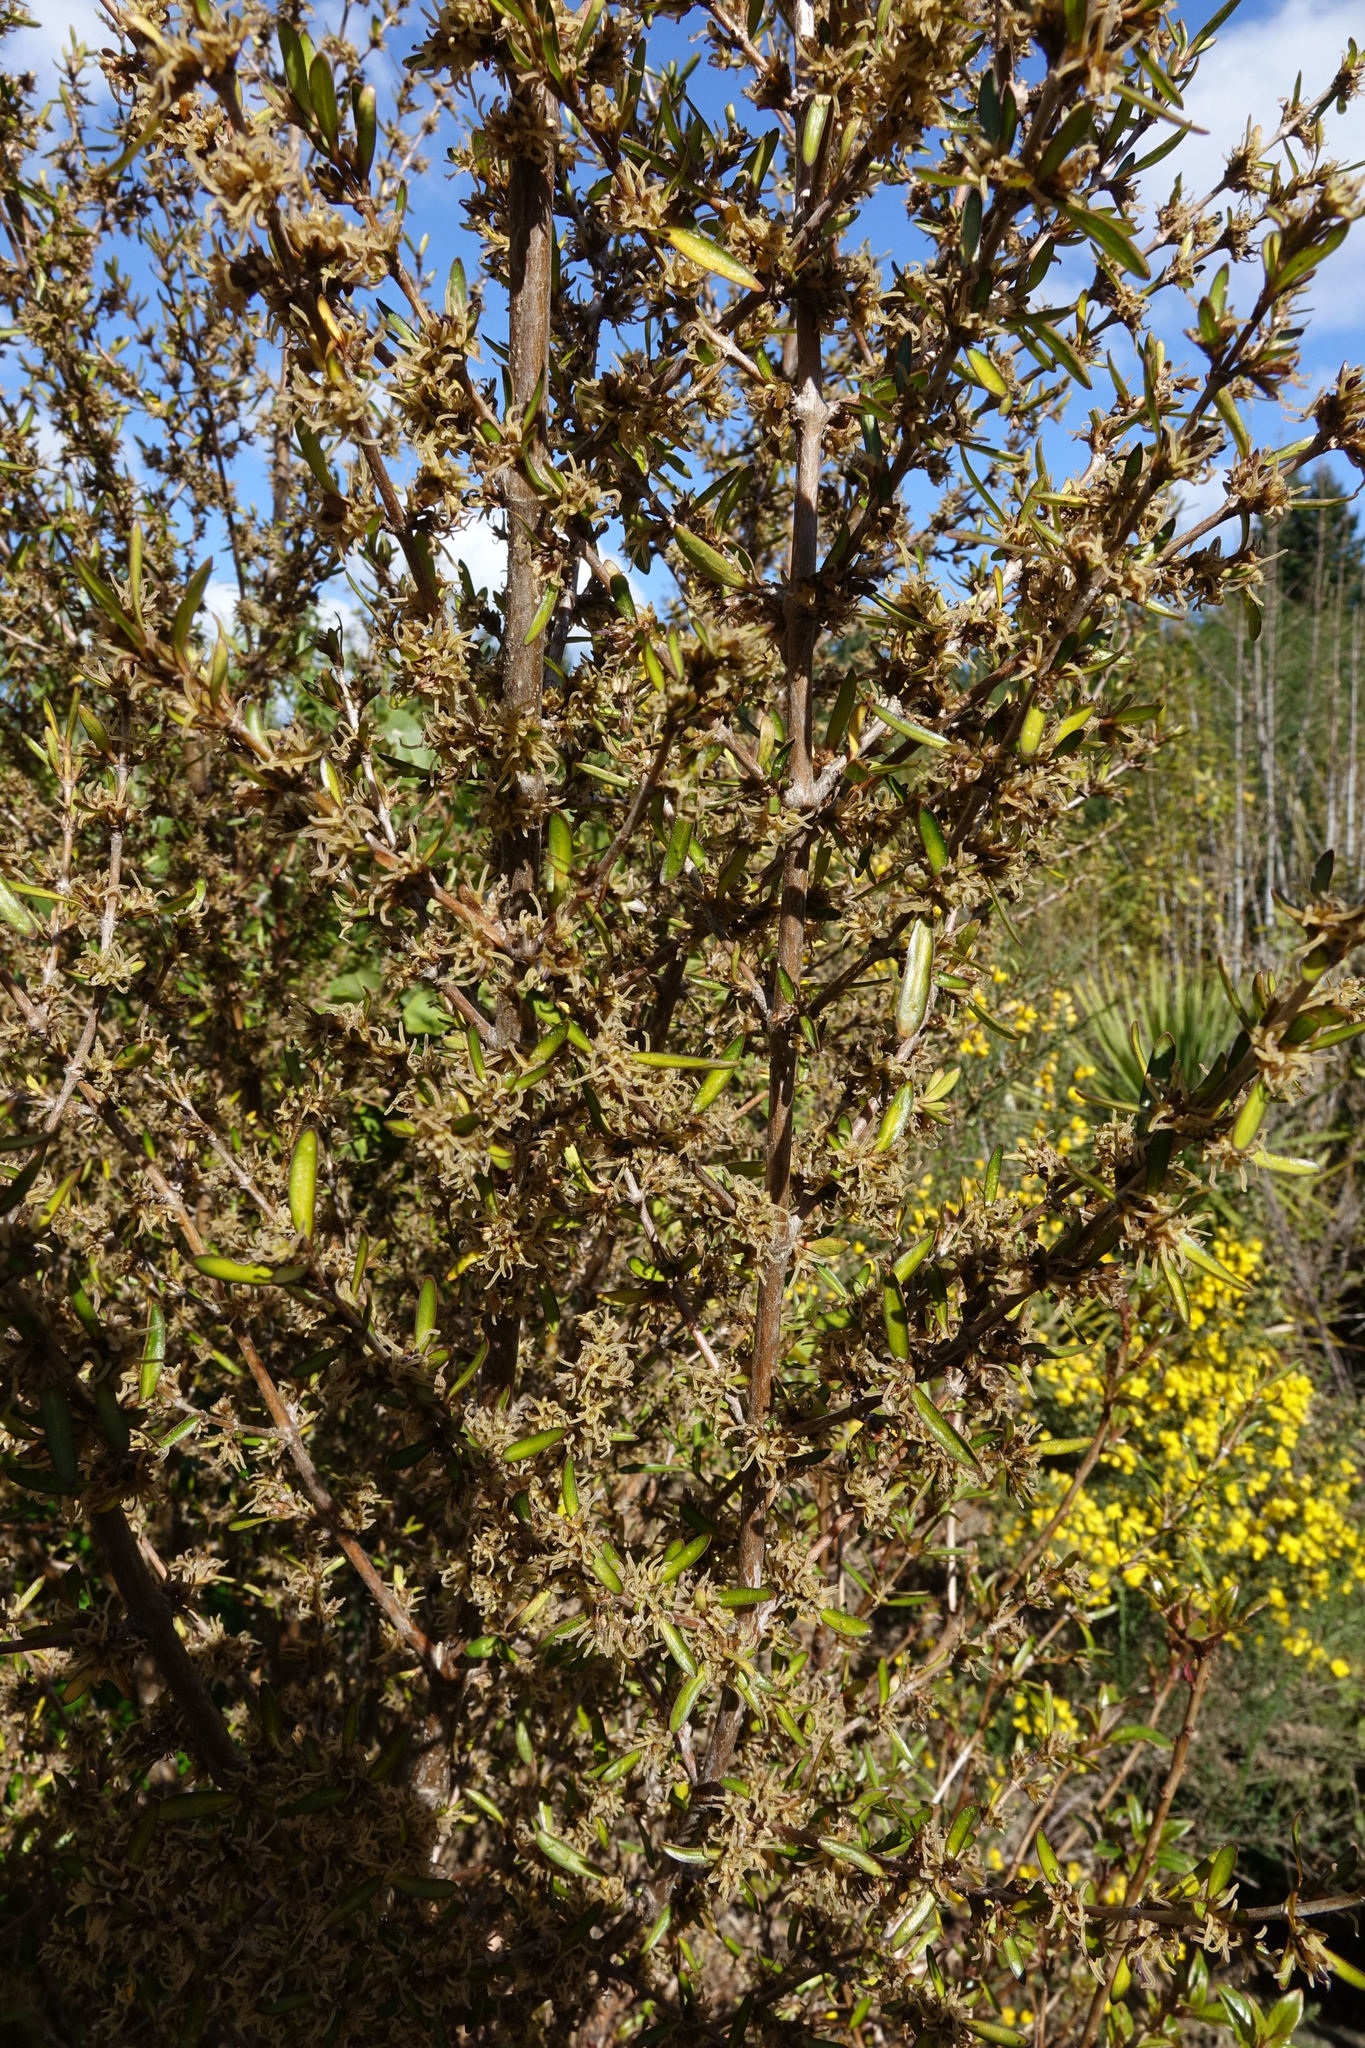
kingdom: Plantae
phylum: Tracheophyta
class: Magnoliopsida
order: Gentianales
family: Rubiaceae
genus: Coprosma
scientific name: Coprosma cunninghamii
